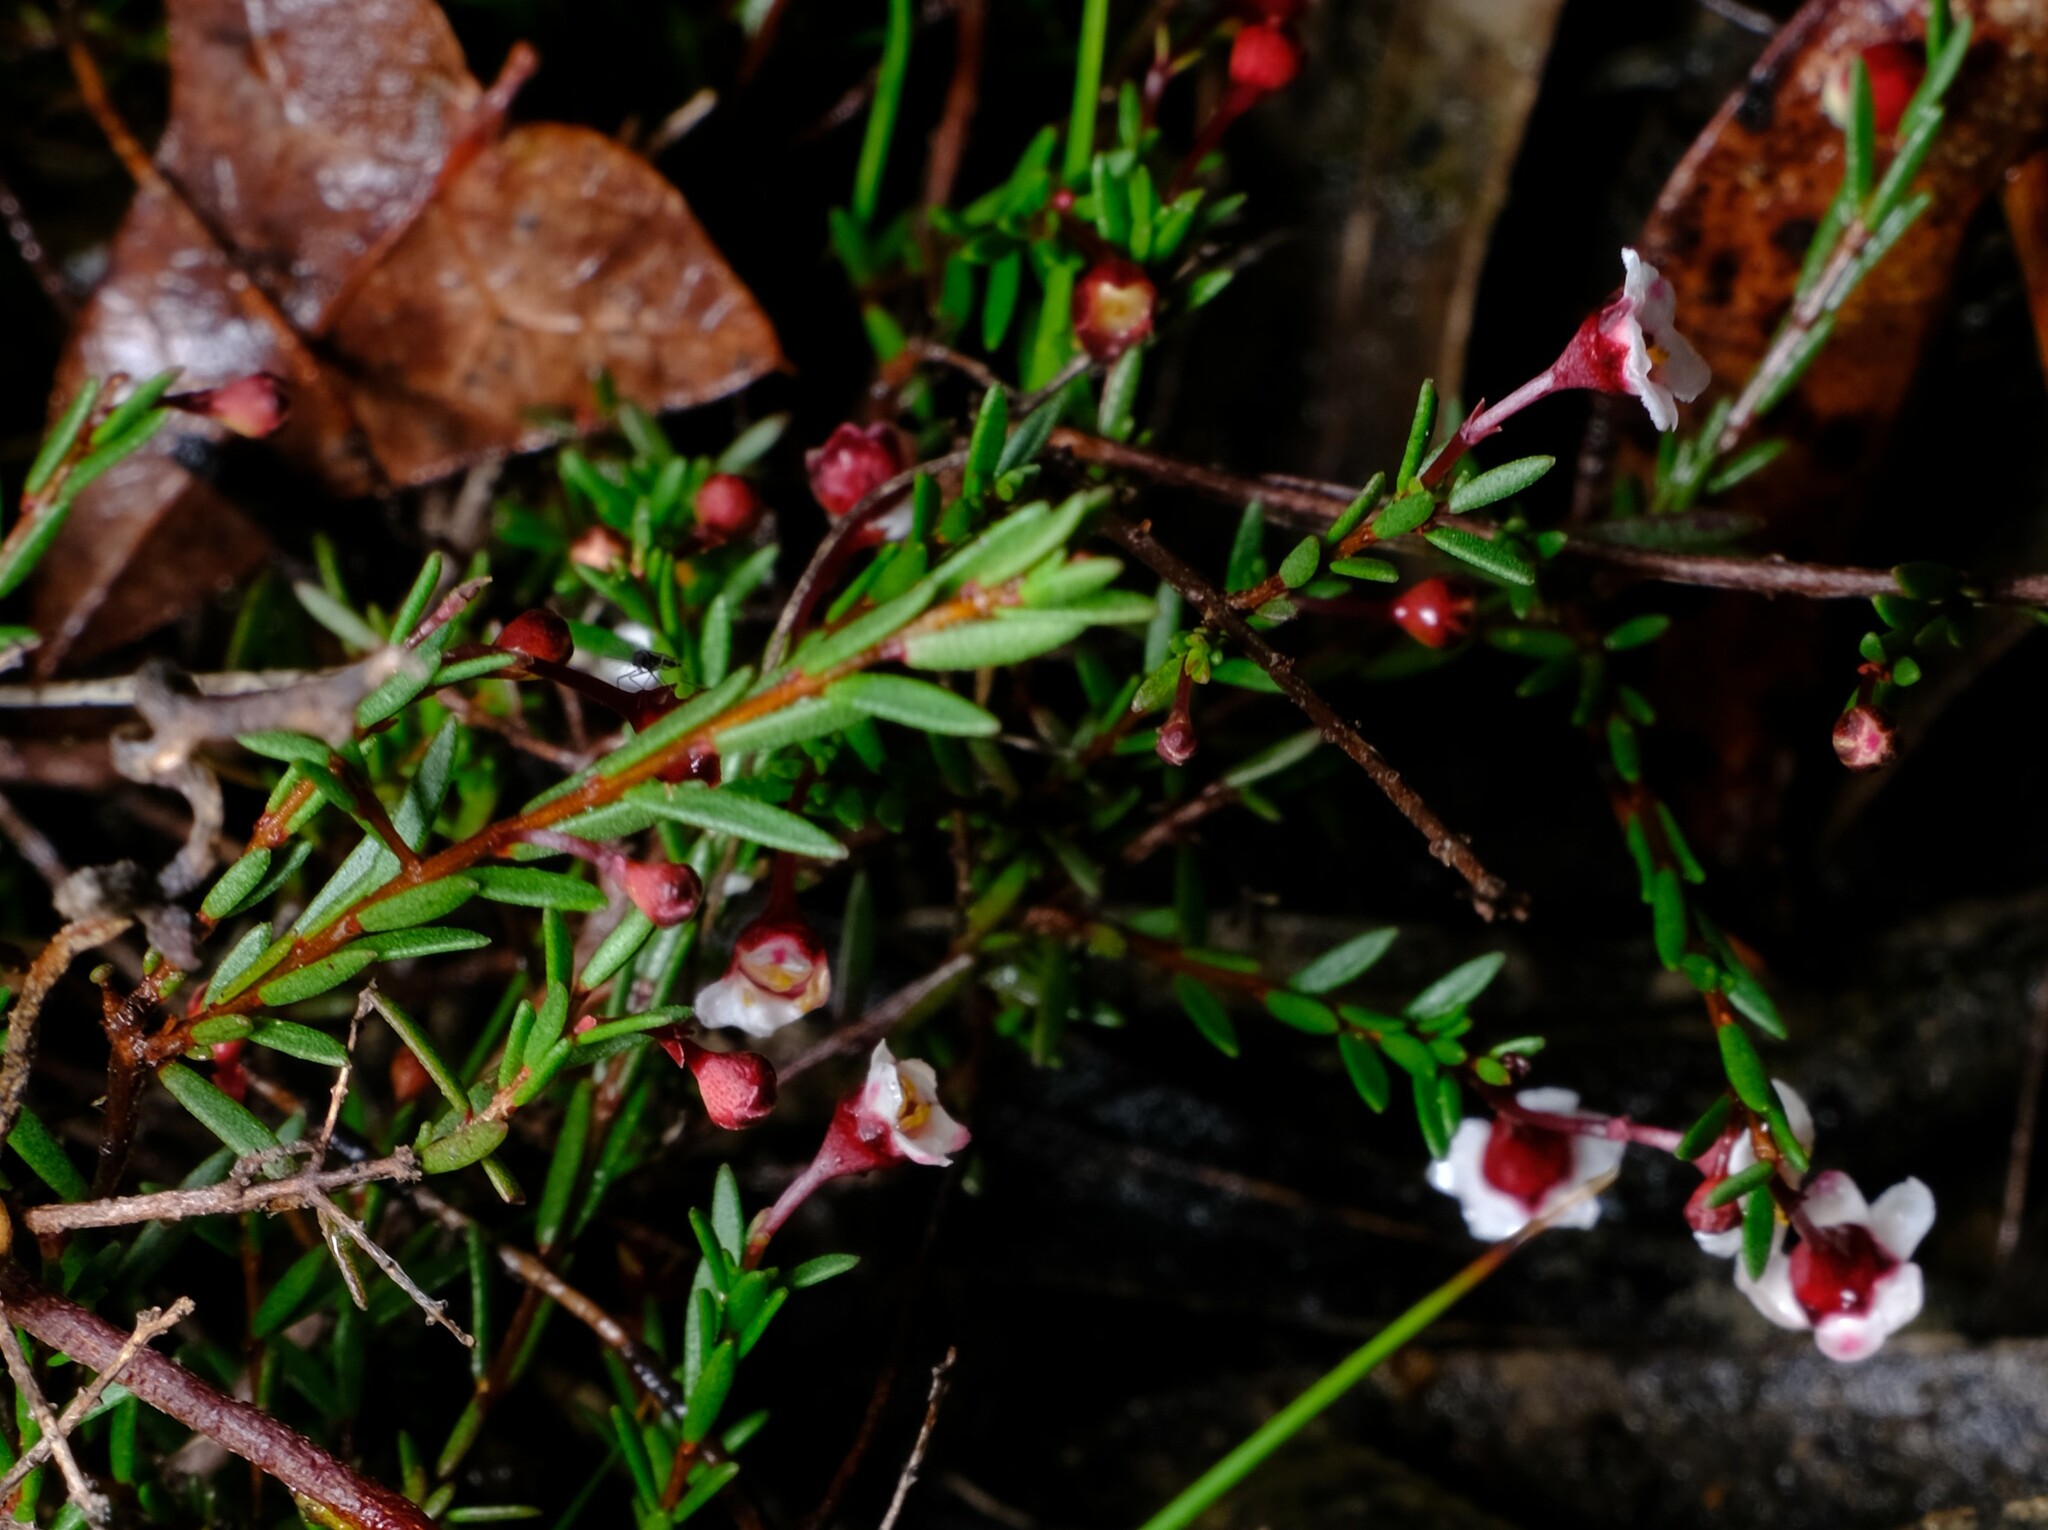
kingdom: Plantae
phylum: Tracheophyta
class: Magnoliopsida
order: Myrtales
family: Myrtaceae
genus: Euryomyrtus
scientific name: Euryomyrtus ramosissima
